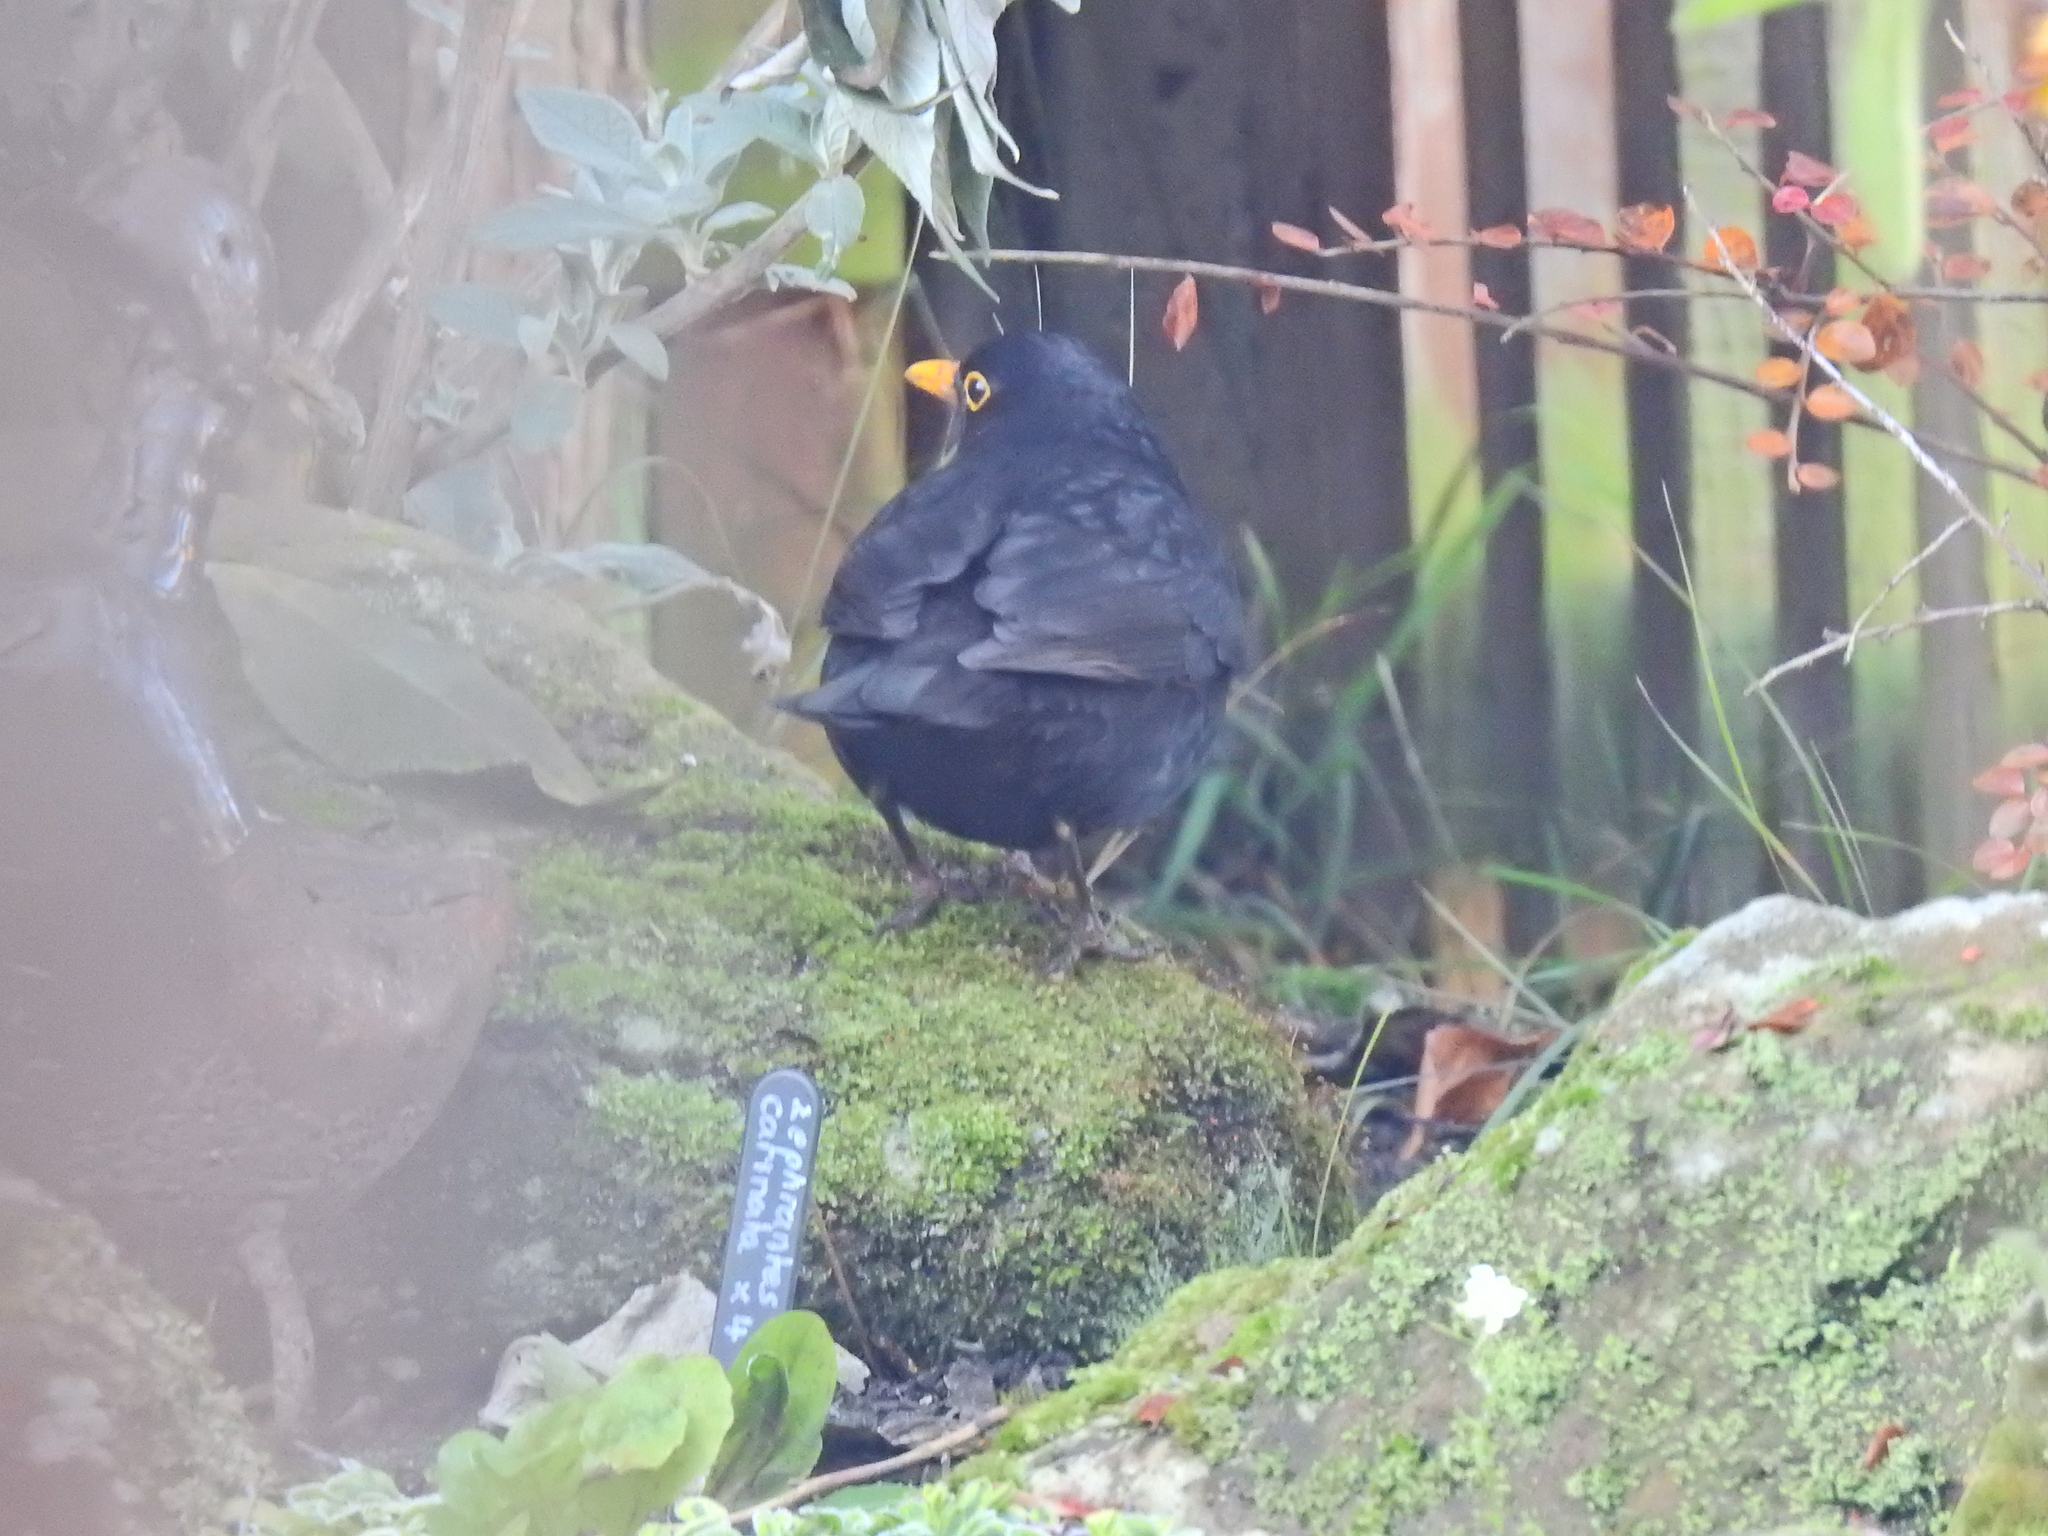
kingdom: Animalia
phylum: Chordata
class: Aves
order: Passeriformes
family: Turdidae
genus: Turdus
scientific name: Turdus merula
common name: Common blackbird
